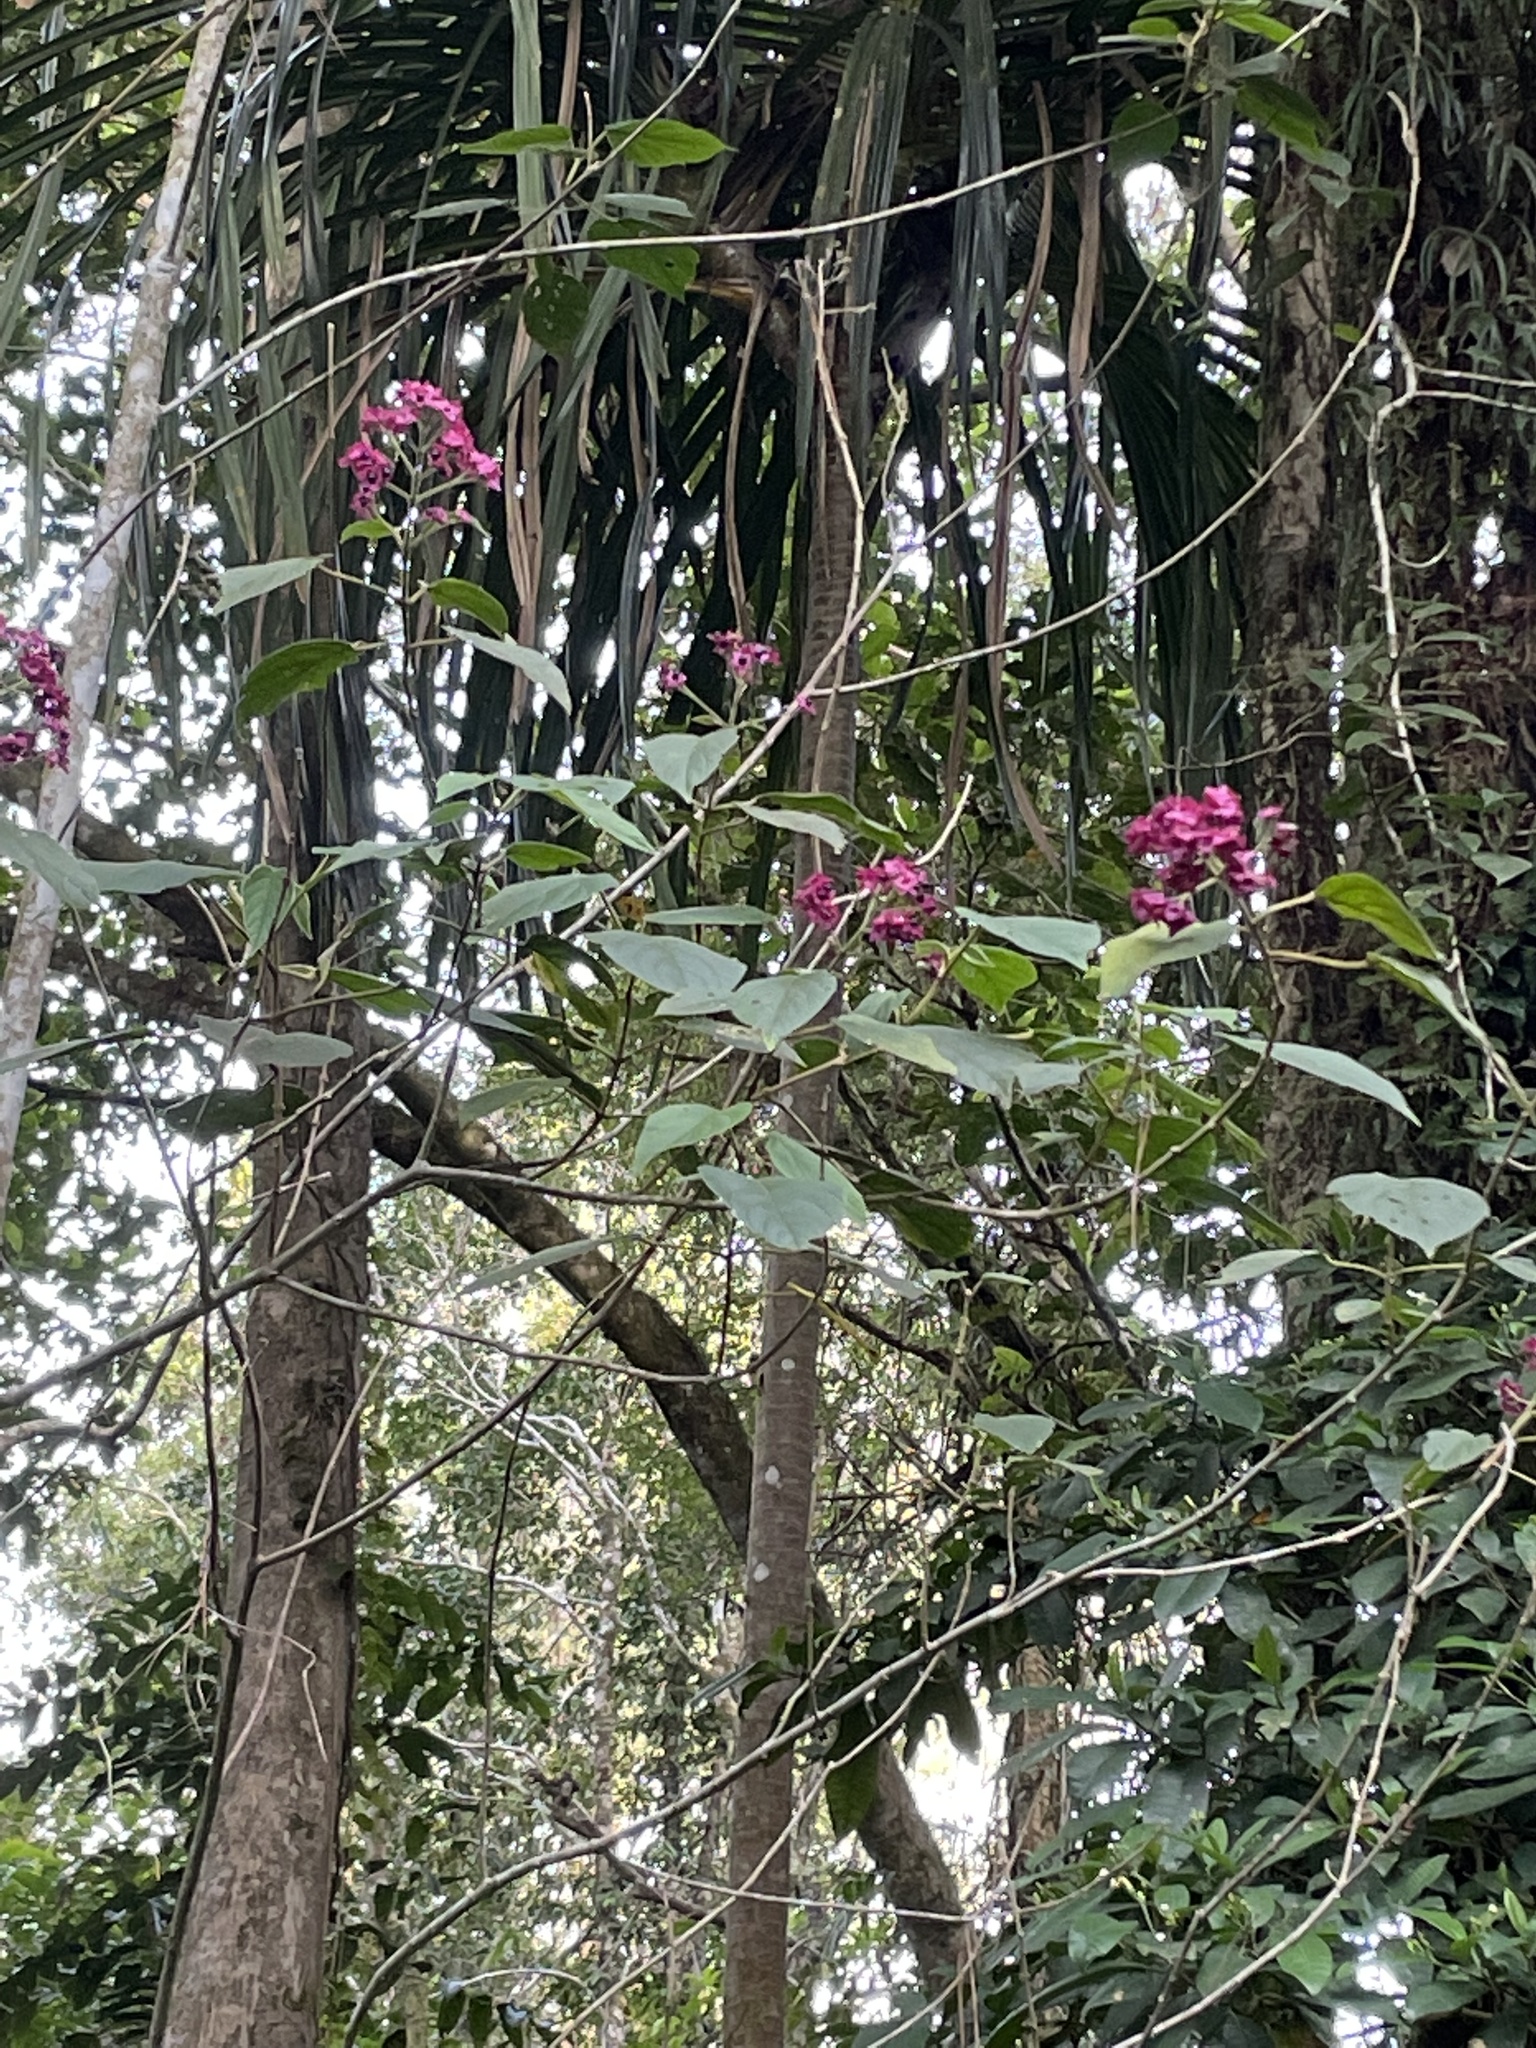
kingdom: Plantae
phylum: Tracheophyta
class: Magnoliopsida
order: Lamiales
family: Lamiaceae
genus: Clerodendrum
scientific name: Clerodendrum trichotomum
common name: Harlequin glorybower
